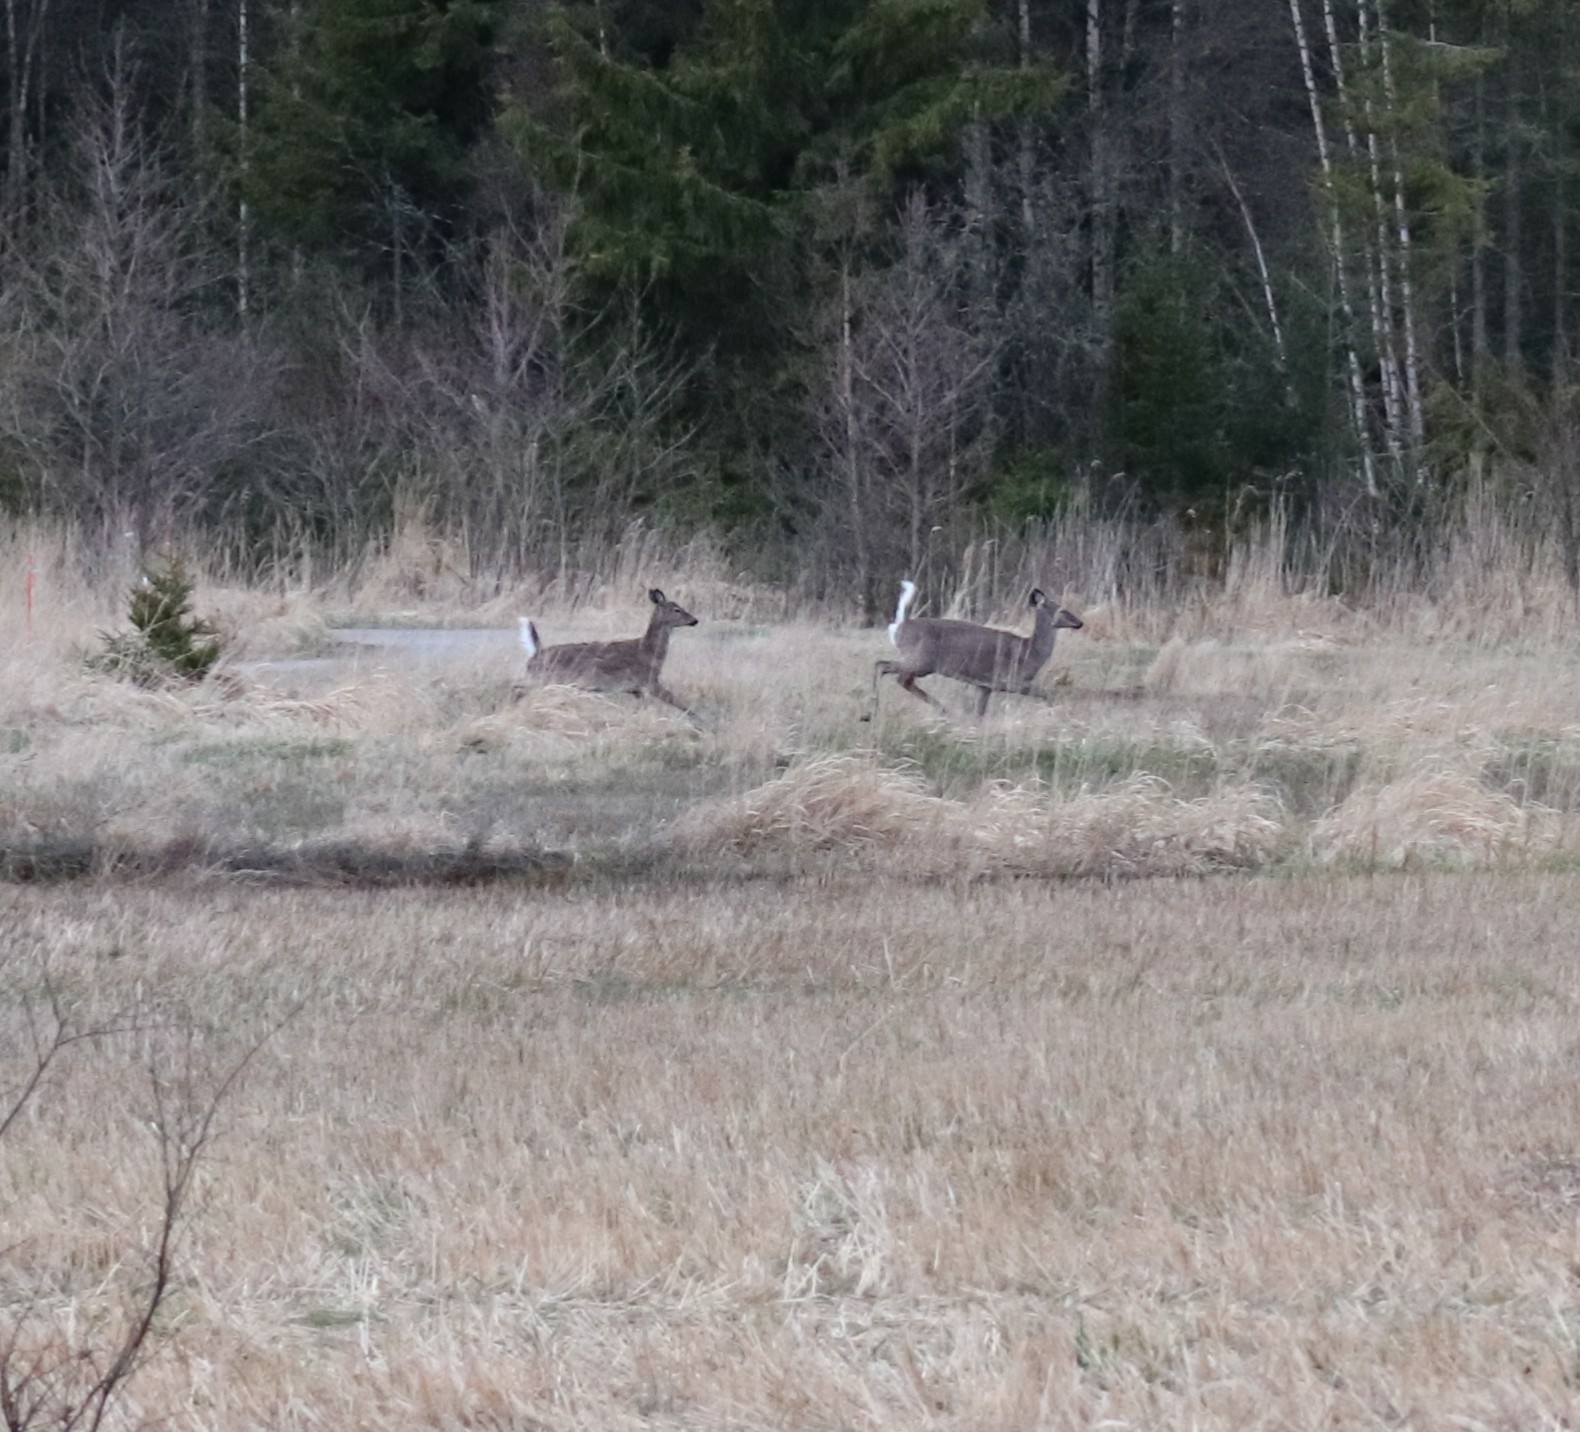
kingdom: Animalia
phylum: Chordata
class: Mammalia
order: Artiodactyla
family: Cervidae
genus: Odocoileus
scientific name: Odocoileus virginianus
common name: White-tailed deer
